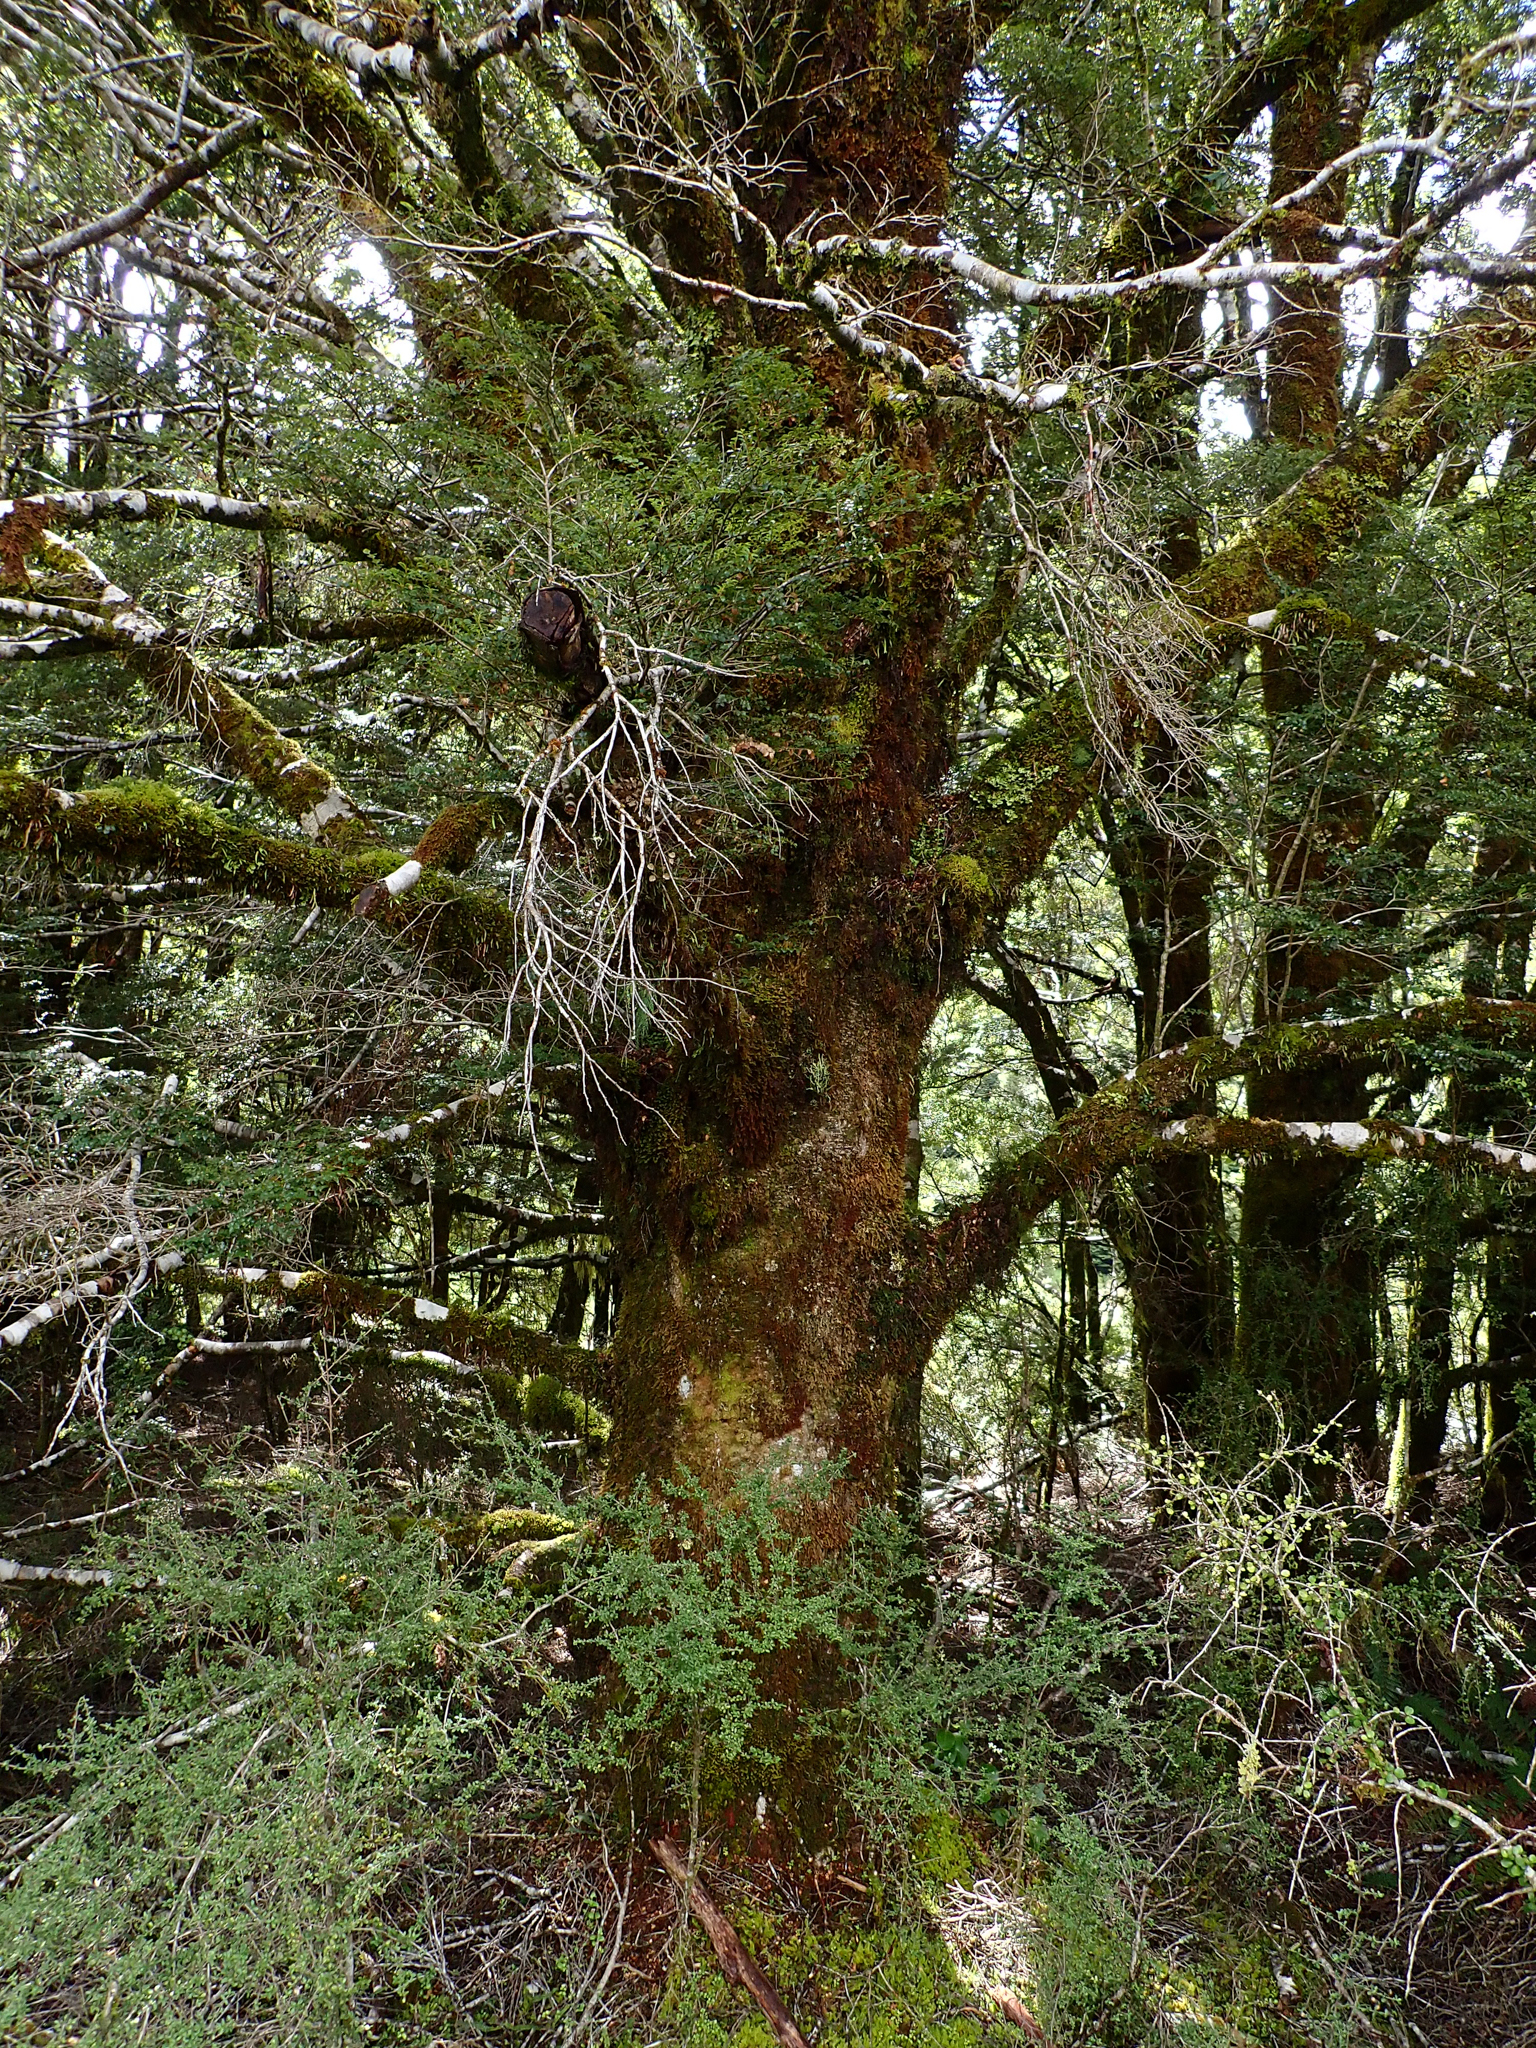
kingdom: Plantae
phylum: Tracheophyta
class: Magnoliopsida
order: Fagales
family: Nothofagaceae
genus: Nothofagus
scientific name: Nothofagus menziesii
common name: Silver beech
